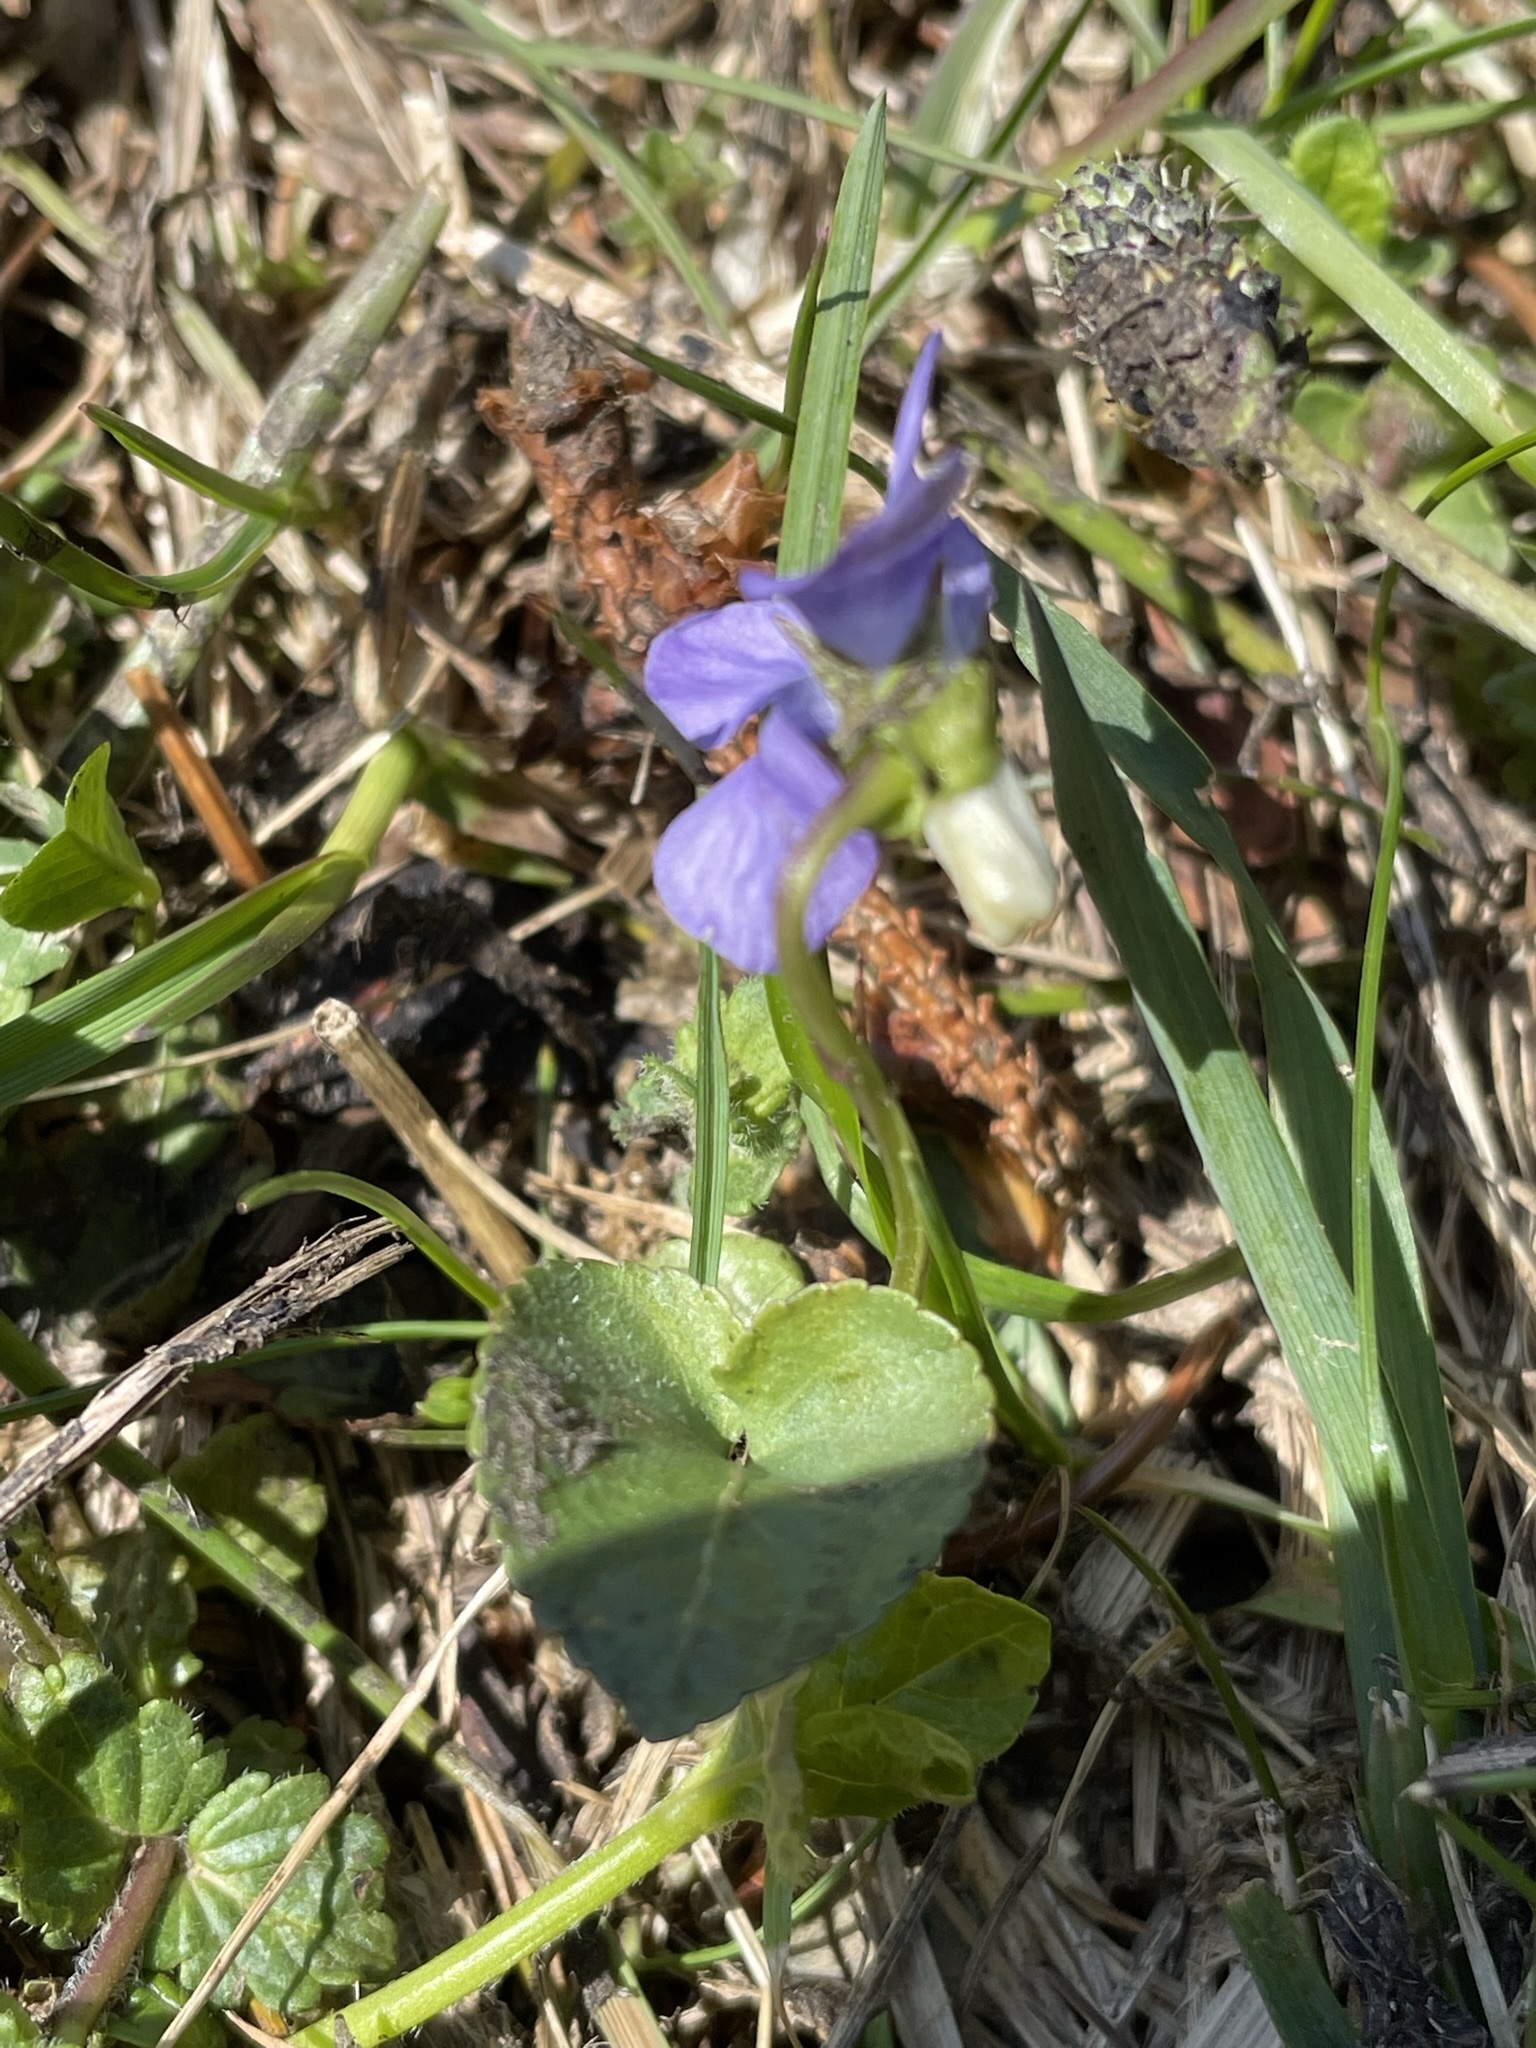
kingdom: Plantae
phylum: Tracheophyta
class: Magnoliopsida
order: Malpighiales
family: Violaceae
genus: Viola
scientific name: Viola riviniana
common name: Common dog-violet
